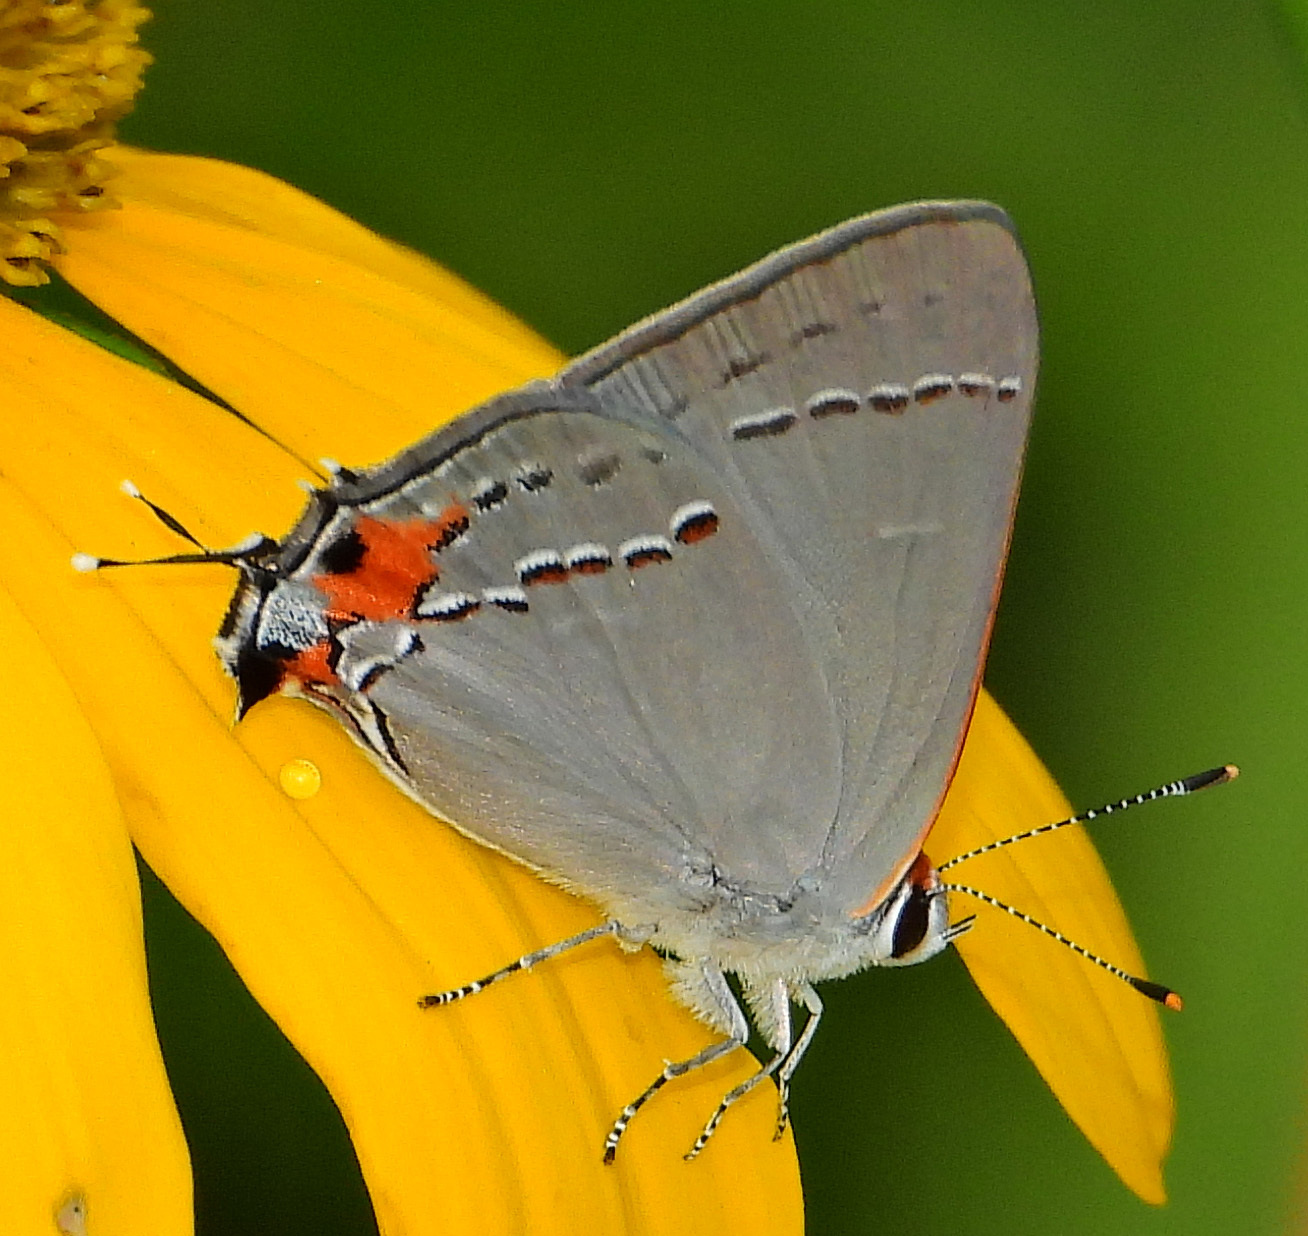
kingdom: Animalia
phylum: Arthropoda
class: Insecta
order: Lepidoptera
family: Lycaenidae
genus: Strymon
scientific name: Strymon melinus
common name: Gray hairstreak
